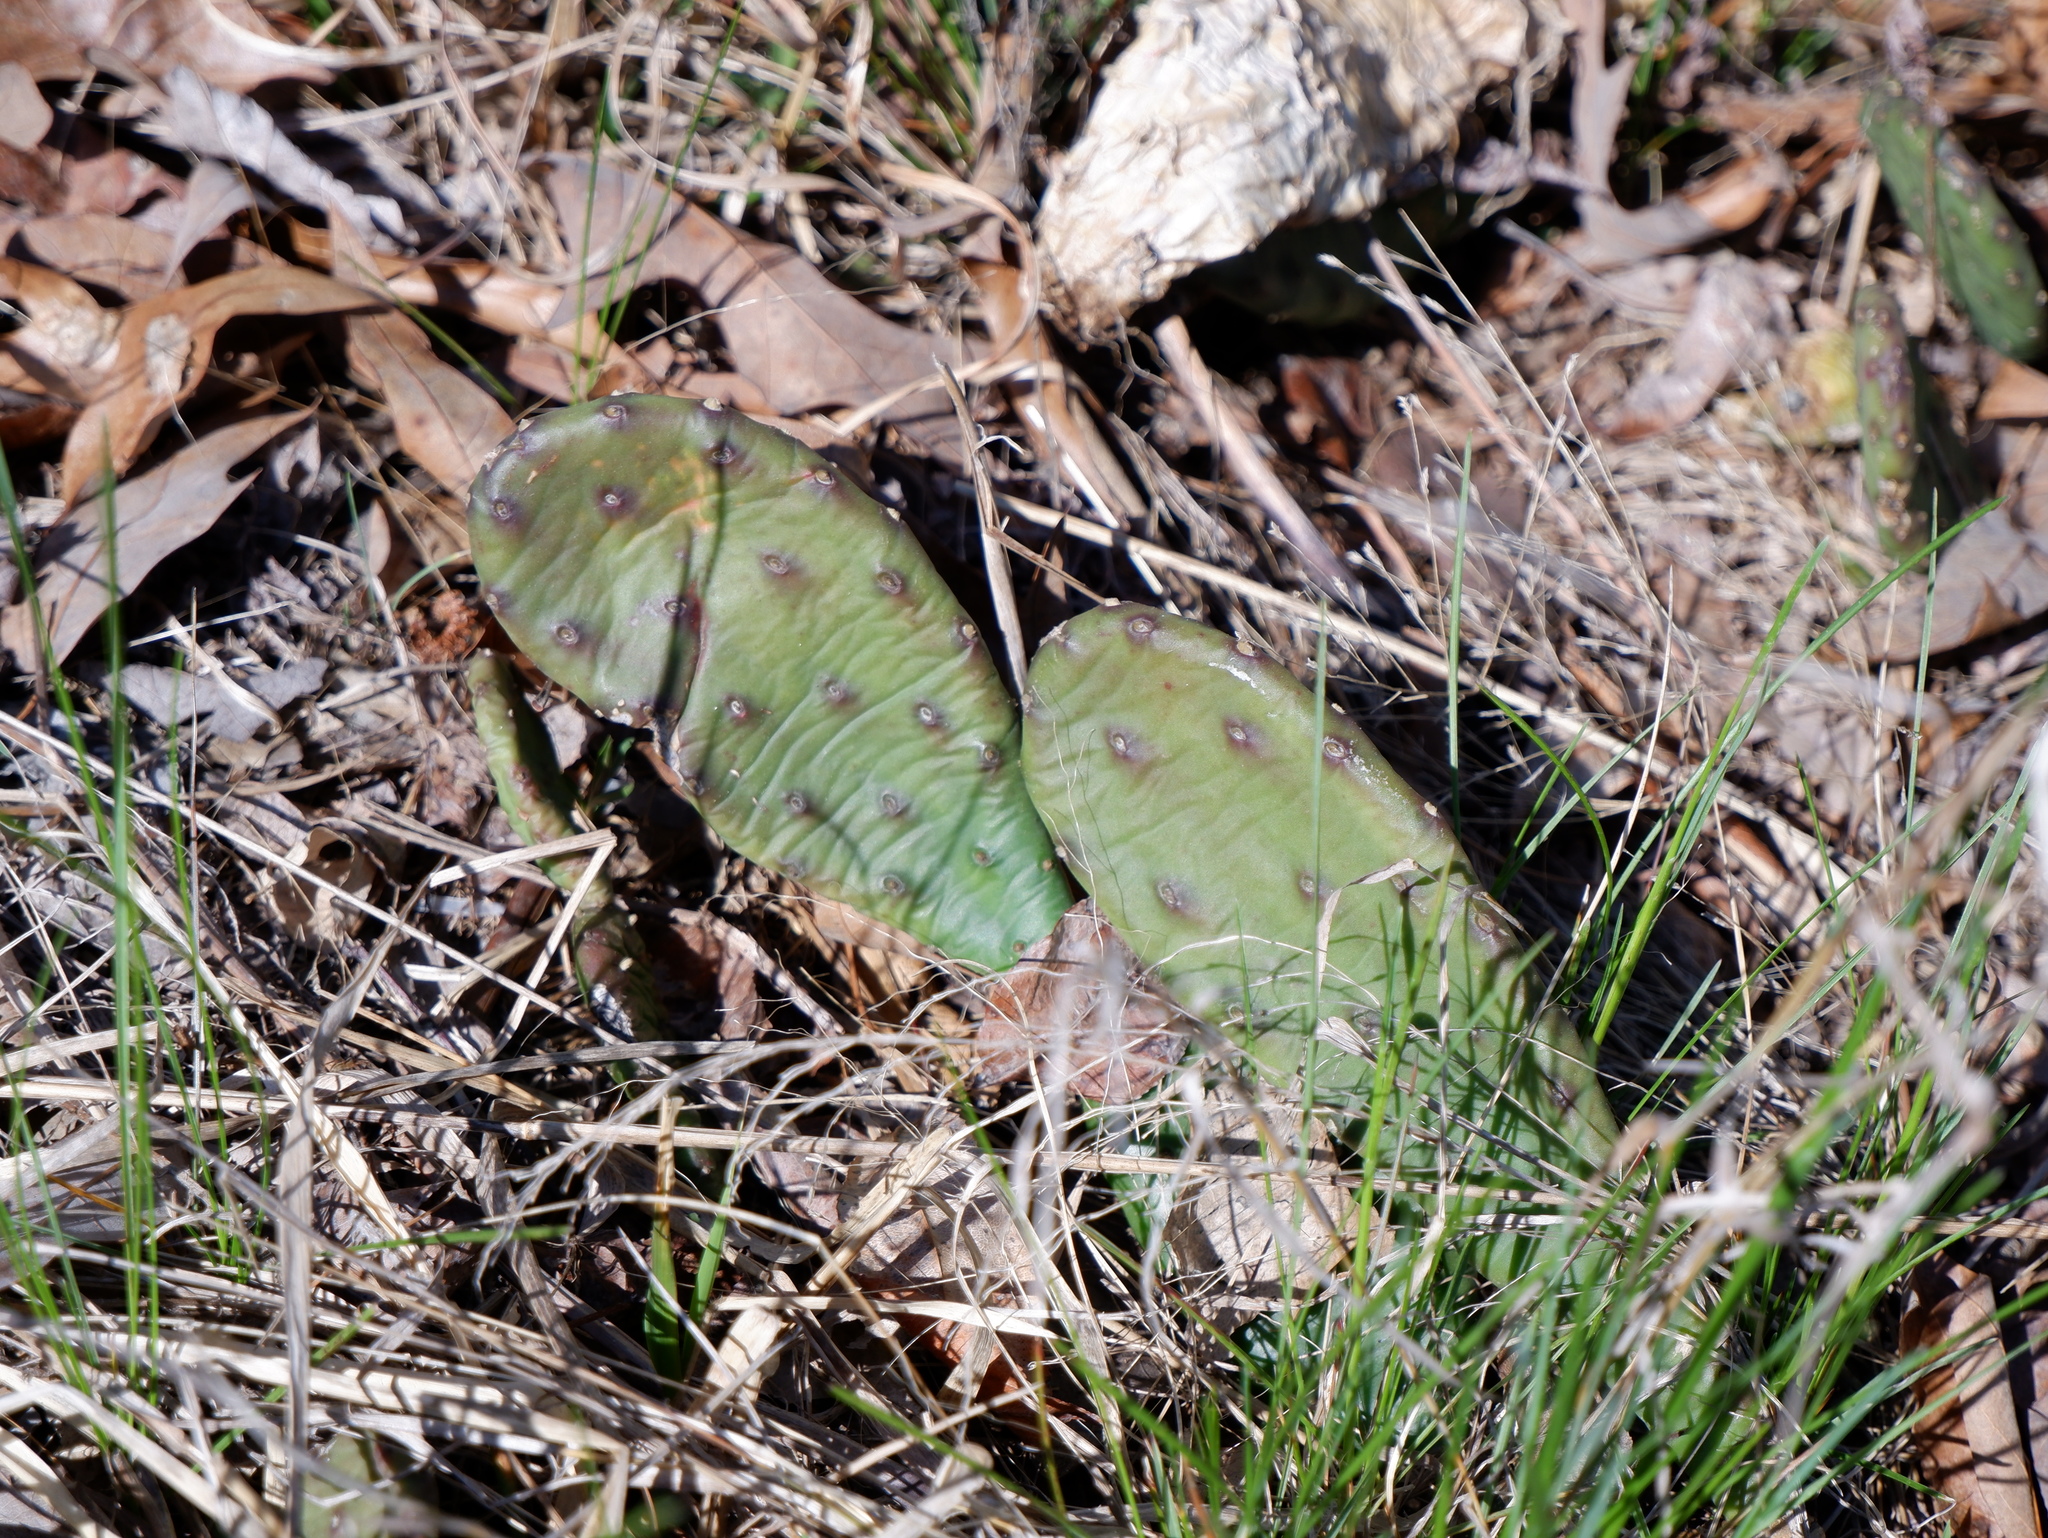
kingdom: Plantae
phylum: Tracheophyta
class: Magnoliopsida
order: Caryophyllales
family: Cactaceae
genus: Opuntia
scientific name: Opuntia humifusa
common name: Eastern prickly-pear
